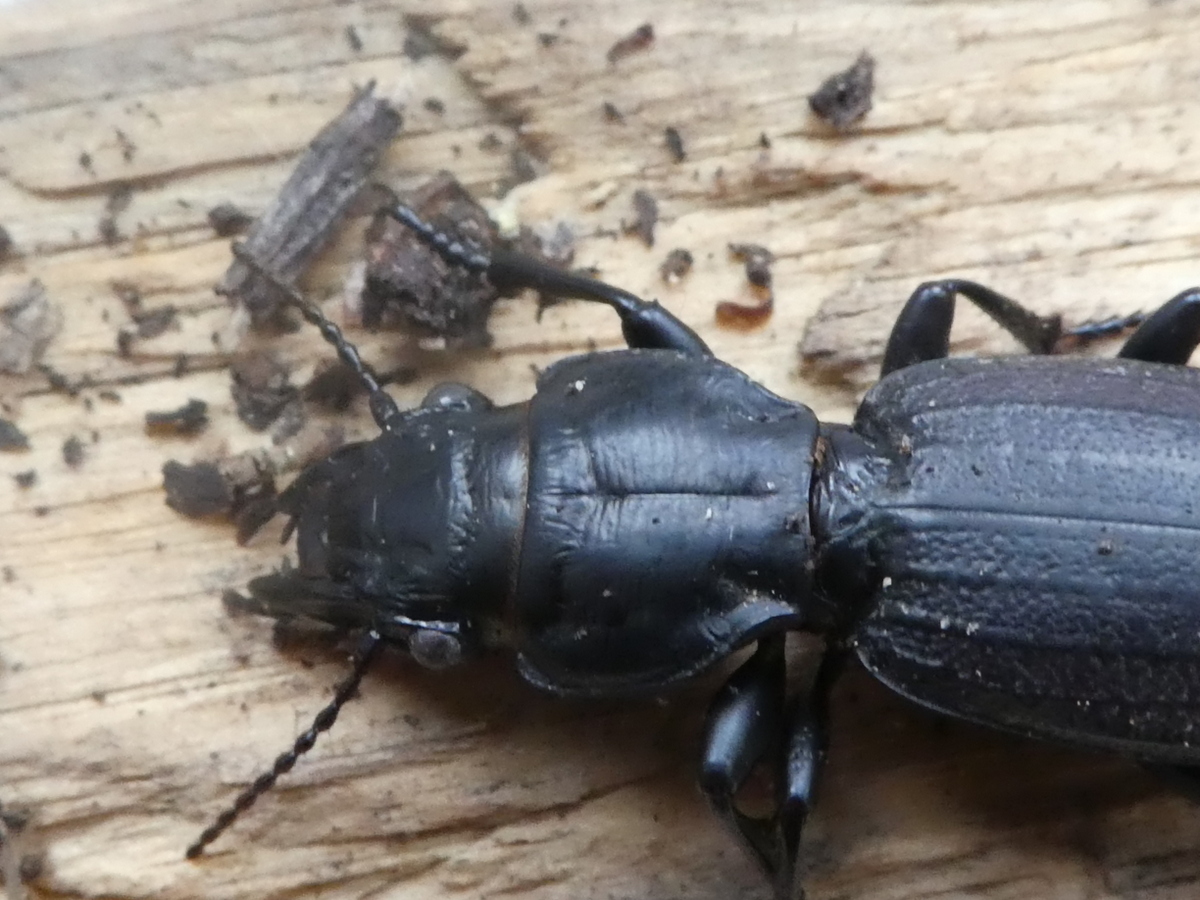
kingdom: Animalia
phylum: Arthropoda
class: Insecta
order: Coleoptera
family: Carabidae
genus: Mecodema
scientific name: Mecodema costellum
